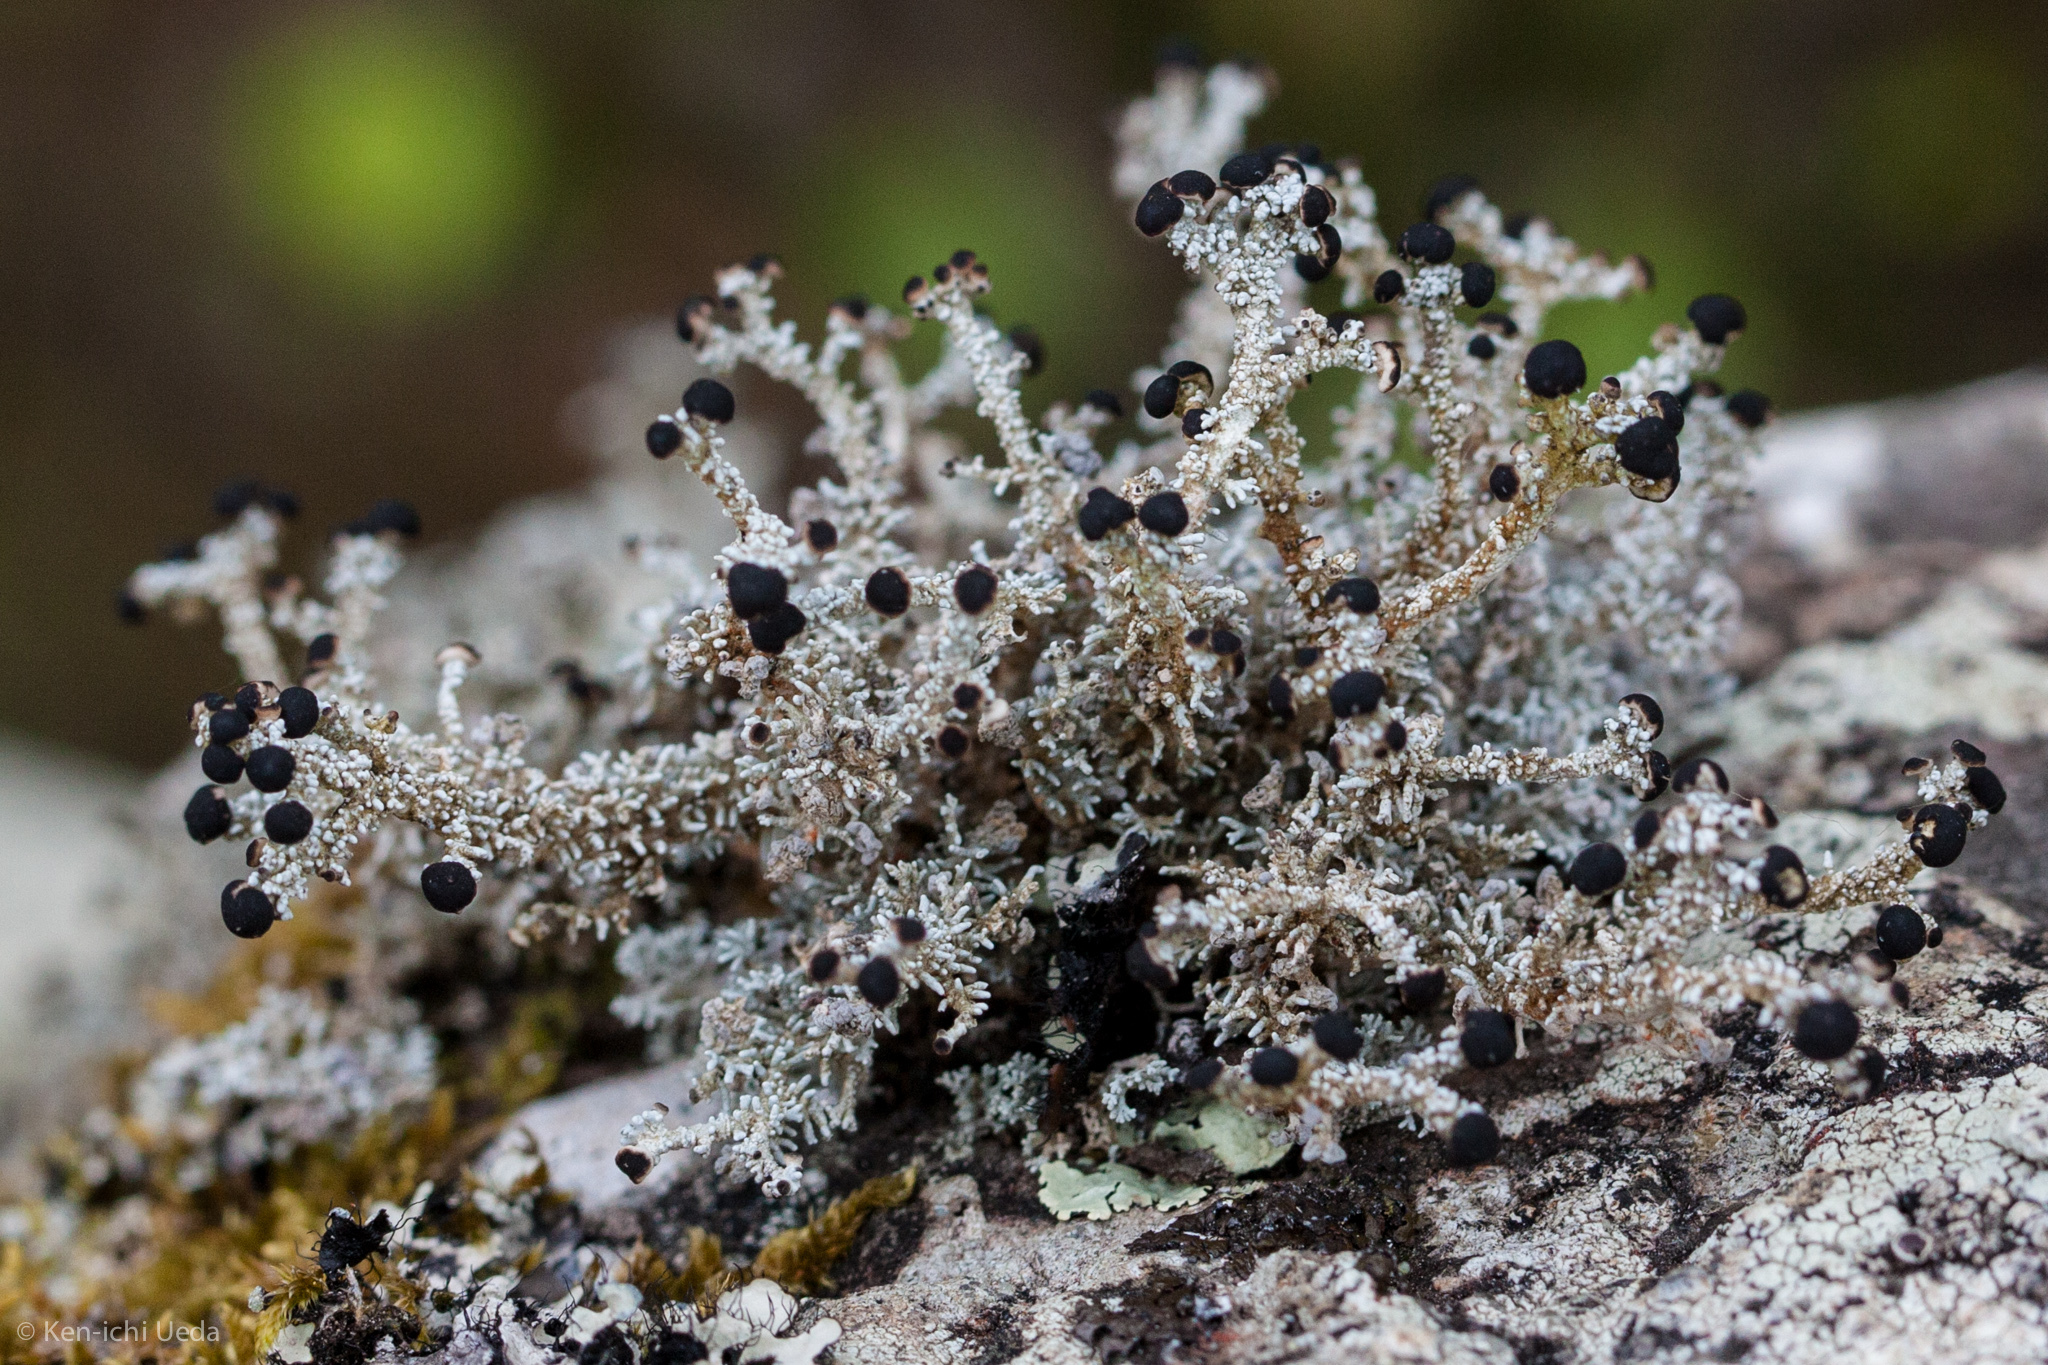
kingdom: Fungi
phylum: Ascomycota
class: Lecanoromycetes
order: Lecanorales
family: Stereocaulaceae
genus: Stereocaulon
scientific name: Stereocaulon ramulosum
